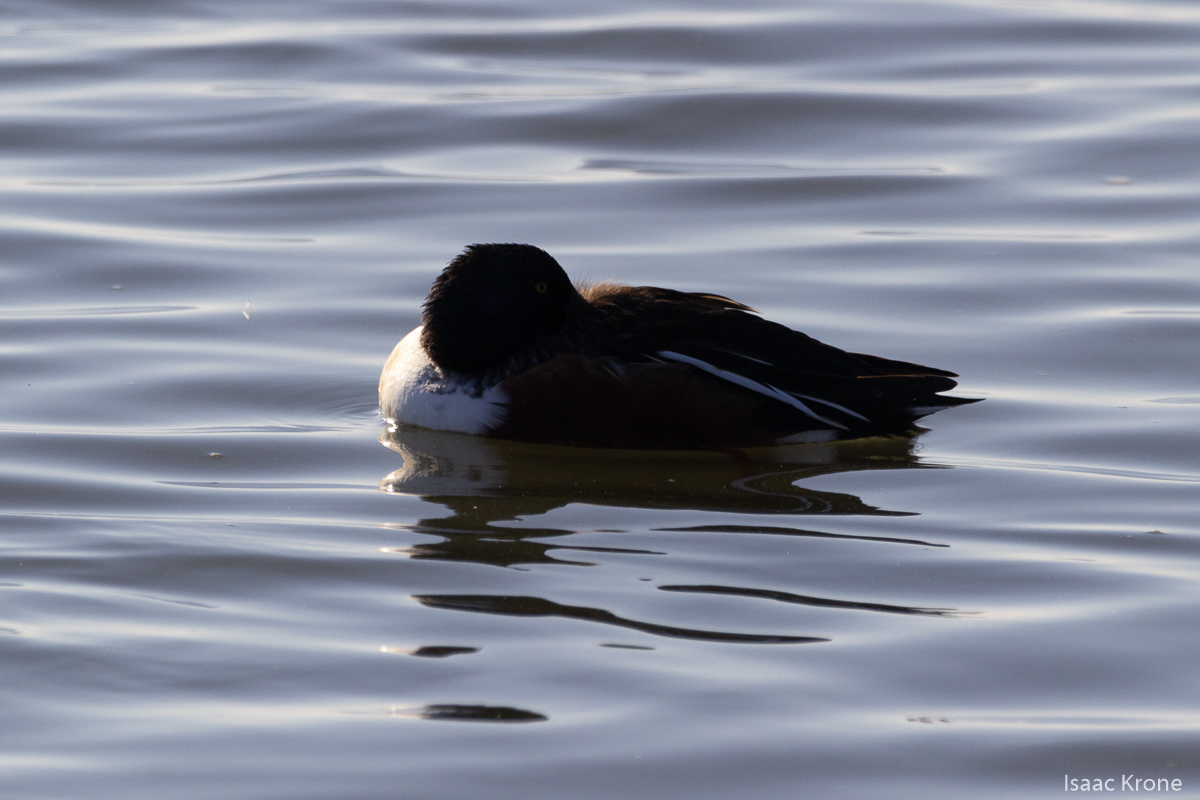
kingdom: Animalia
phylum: Chordata
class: Aves
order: Anseriformes
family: Anatidae
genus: Spatula
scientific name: Spatula clypeata
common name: Northern shoveler
